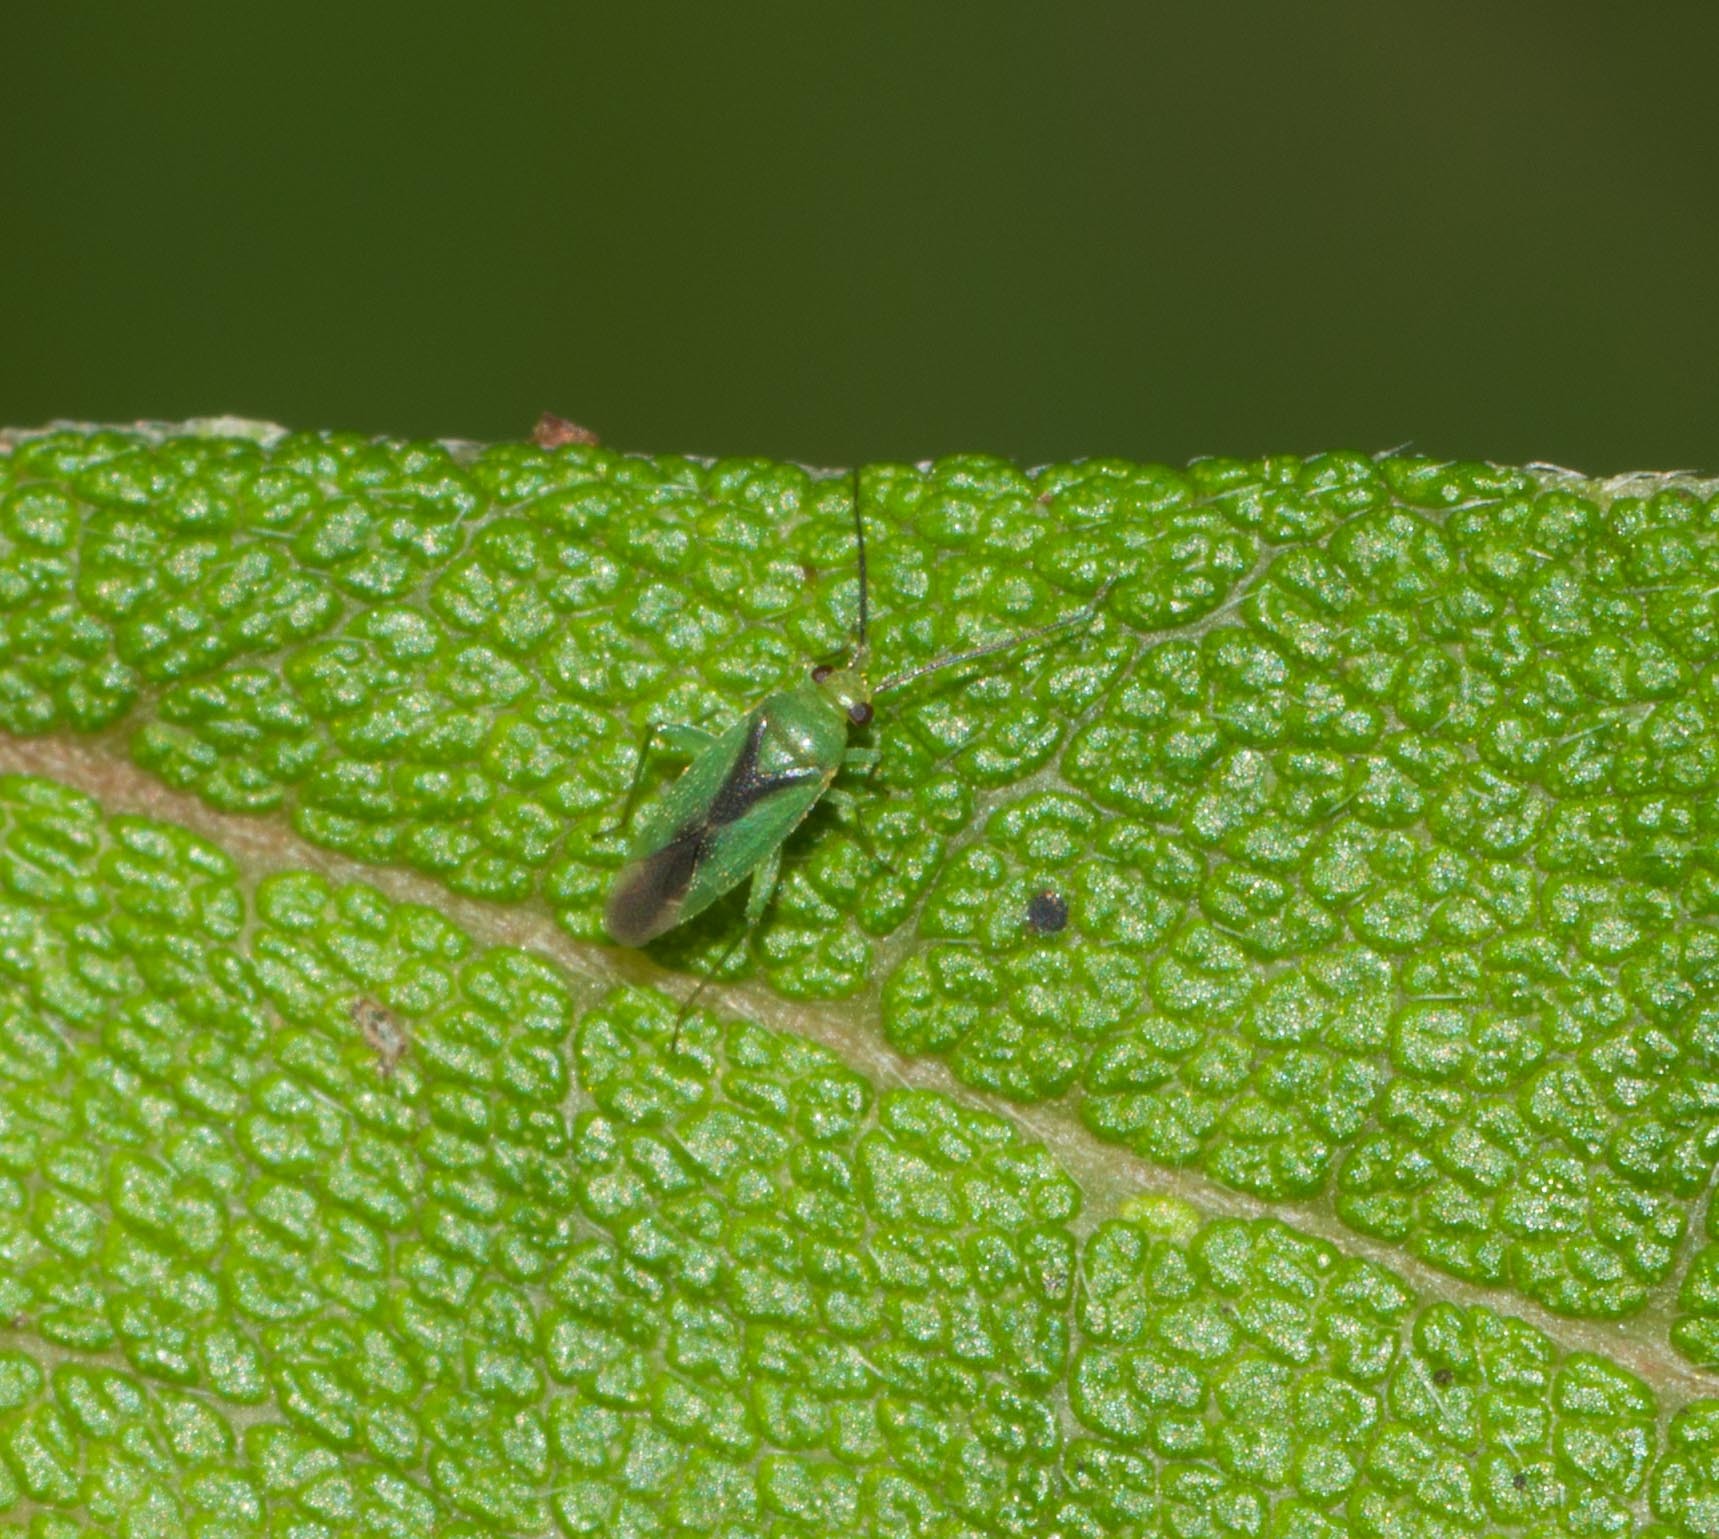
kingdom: Animalia
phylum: Arthropoda
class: Insecta
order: Hemiptera
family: Miridae
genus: Orthotylus
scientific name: Orthotylus tantali
